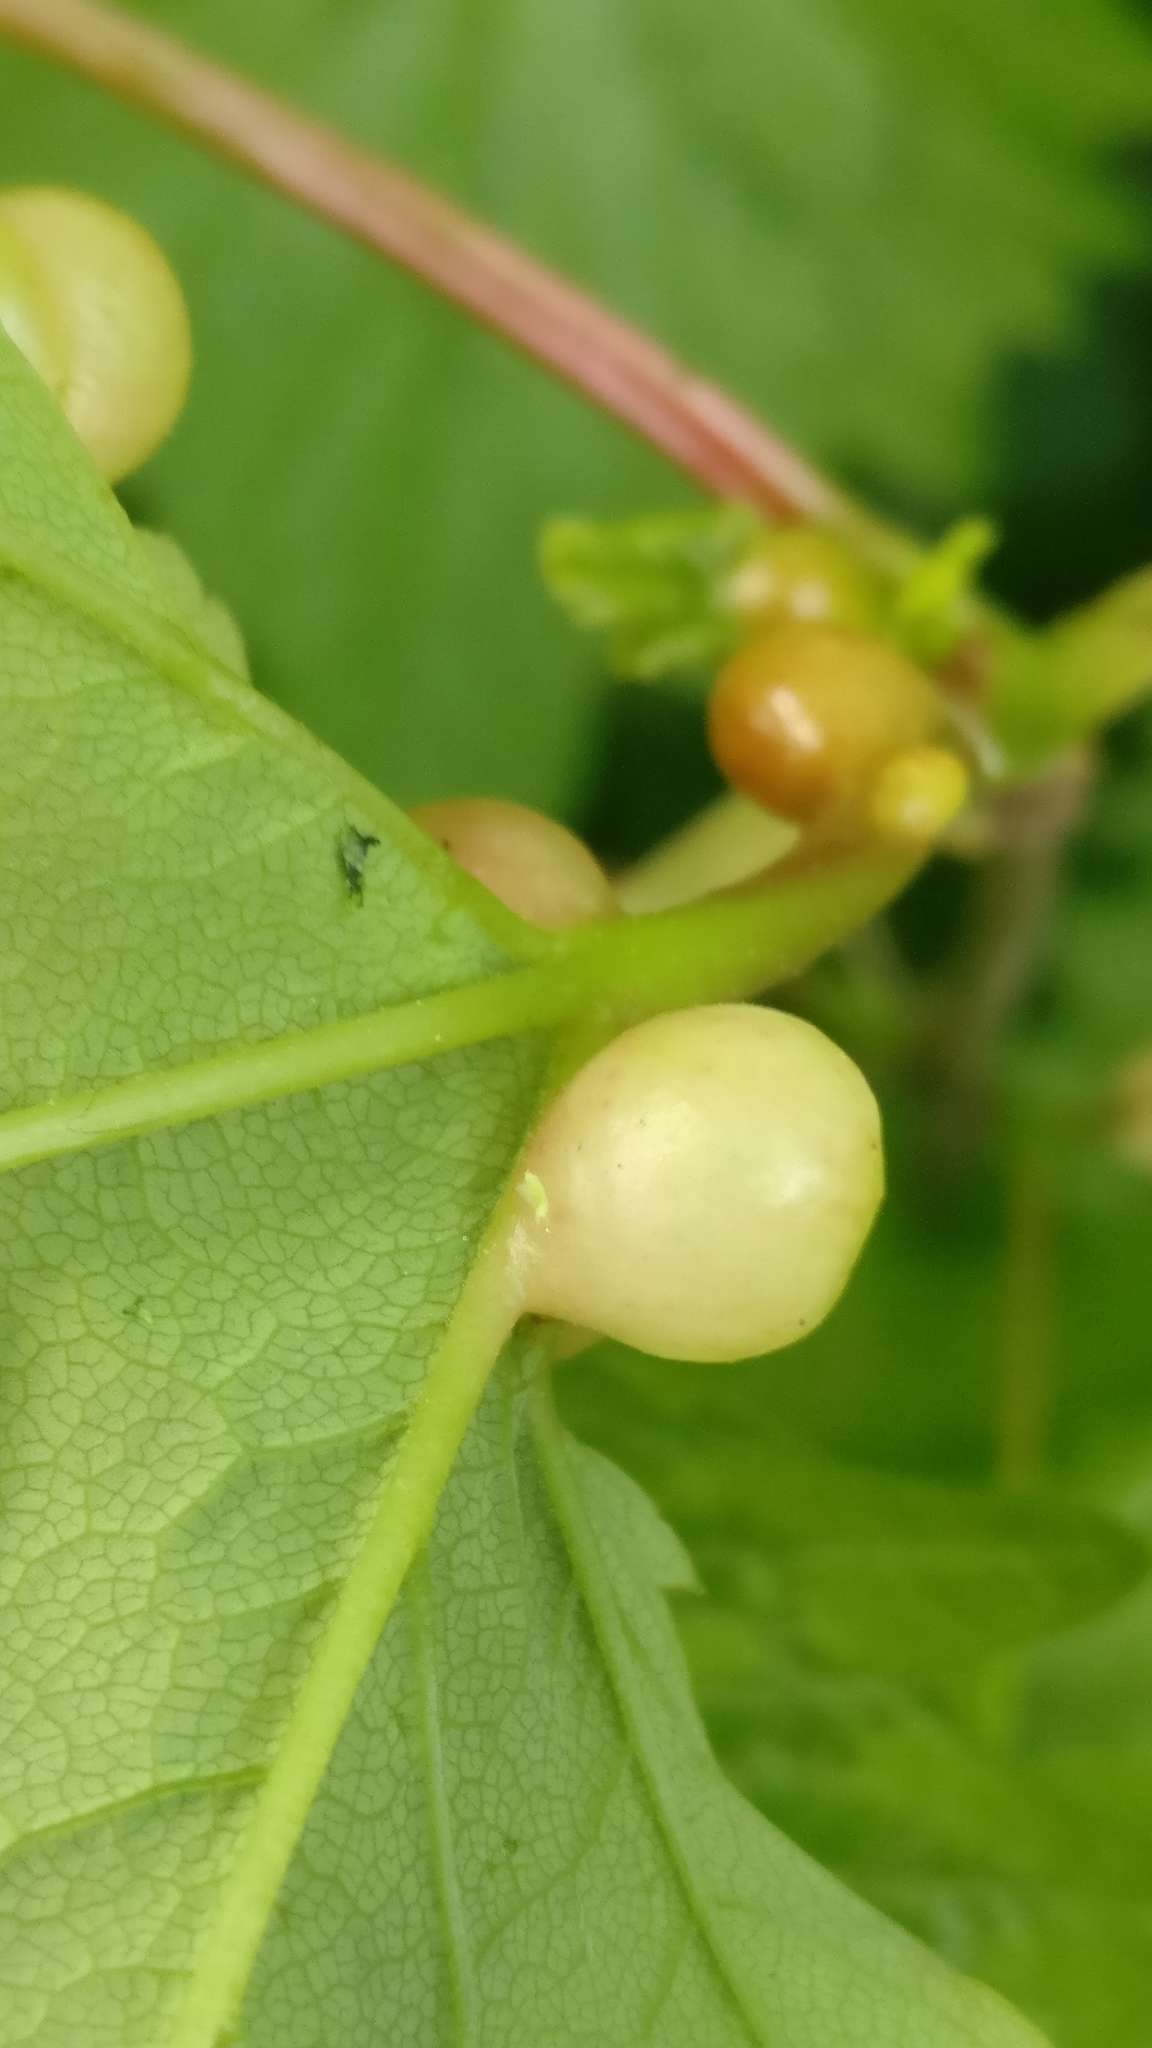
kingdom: Animalia
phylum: Arthropoda
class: Insecta
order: Hymenoptera
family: Cynipidae
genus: Pediaspis
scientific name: Pediaspis aceris
